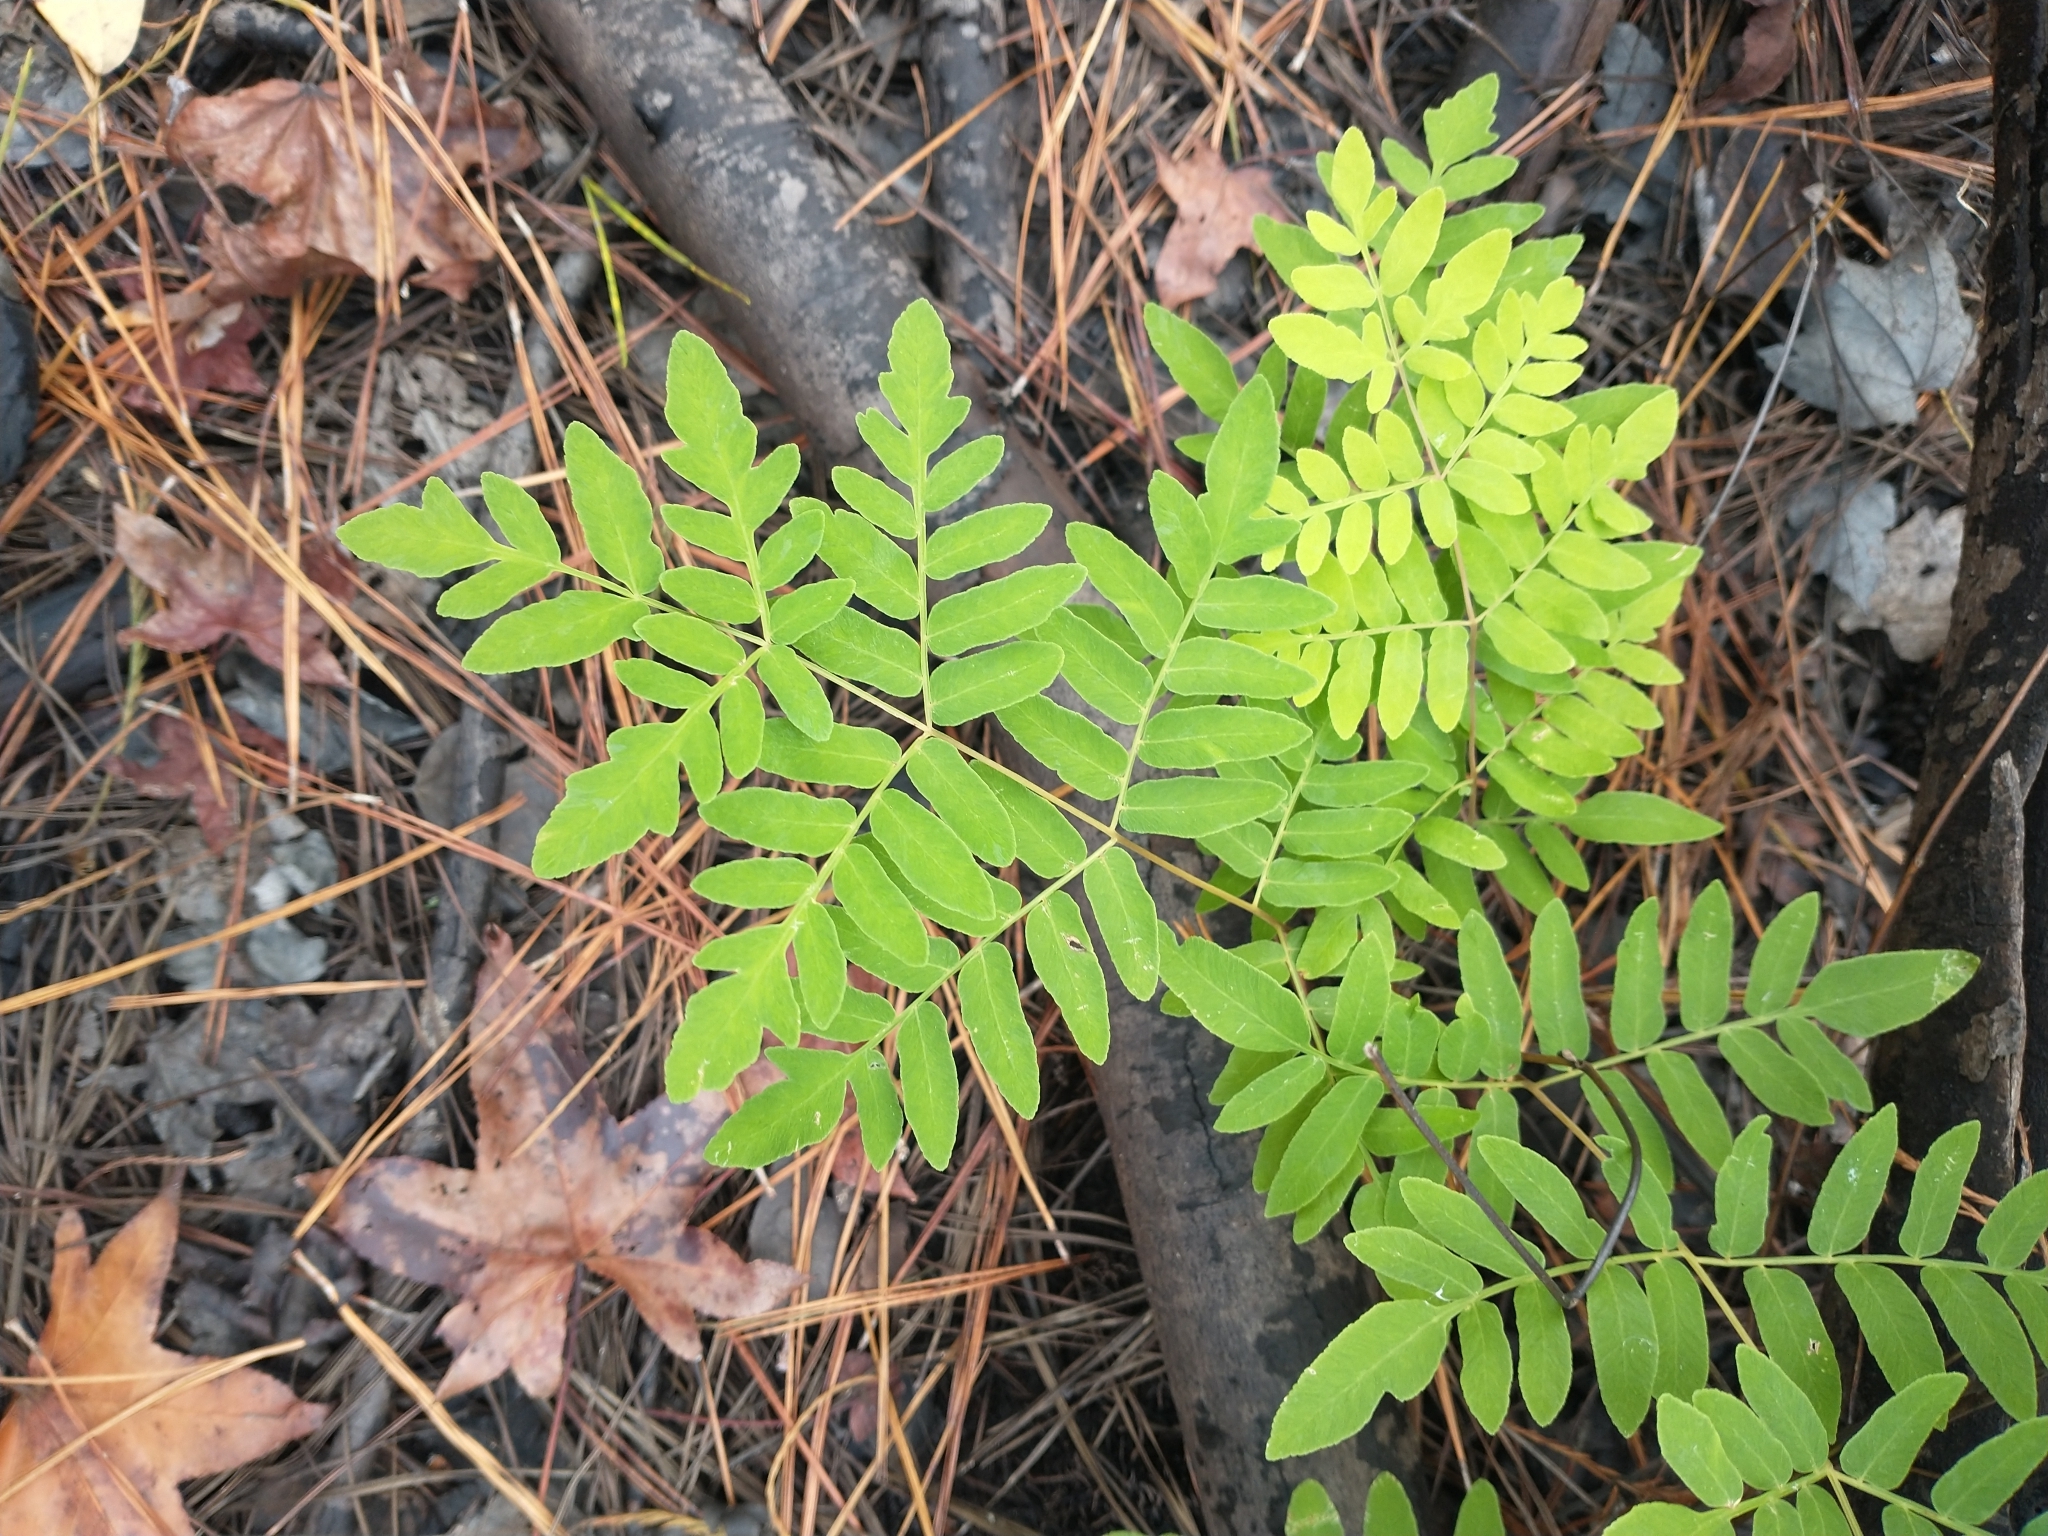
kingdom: Plantae
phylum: Tracheophyta
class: Polypodiopsida
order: Osmundales
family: Osmundaceae
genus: Osmunda
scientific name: Osmunda spectabilis
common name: American royal fern
